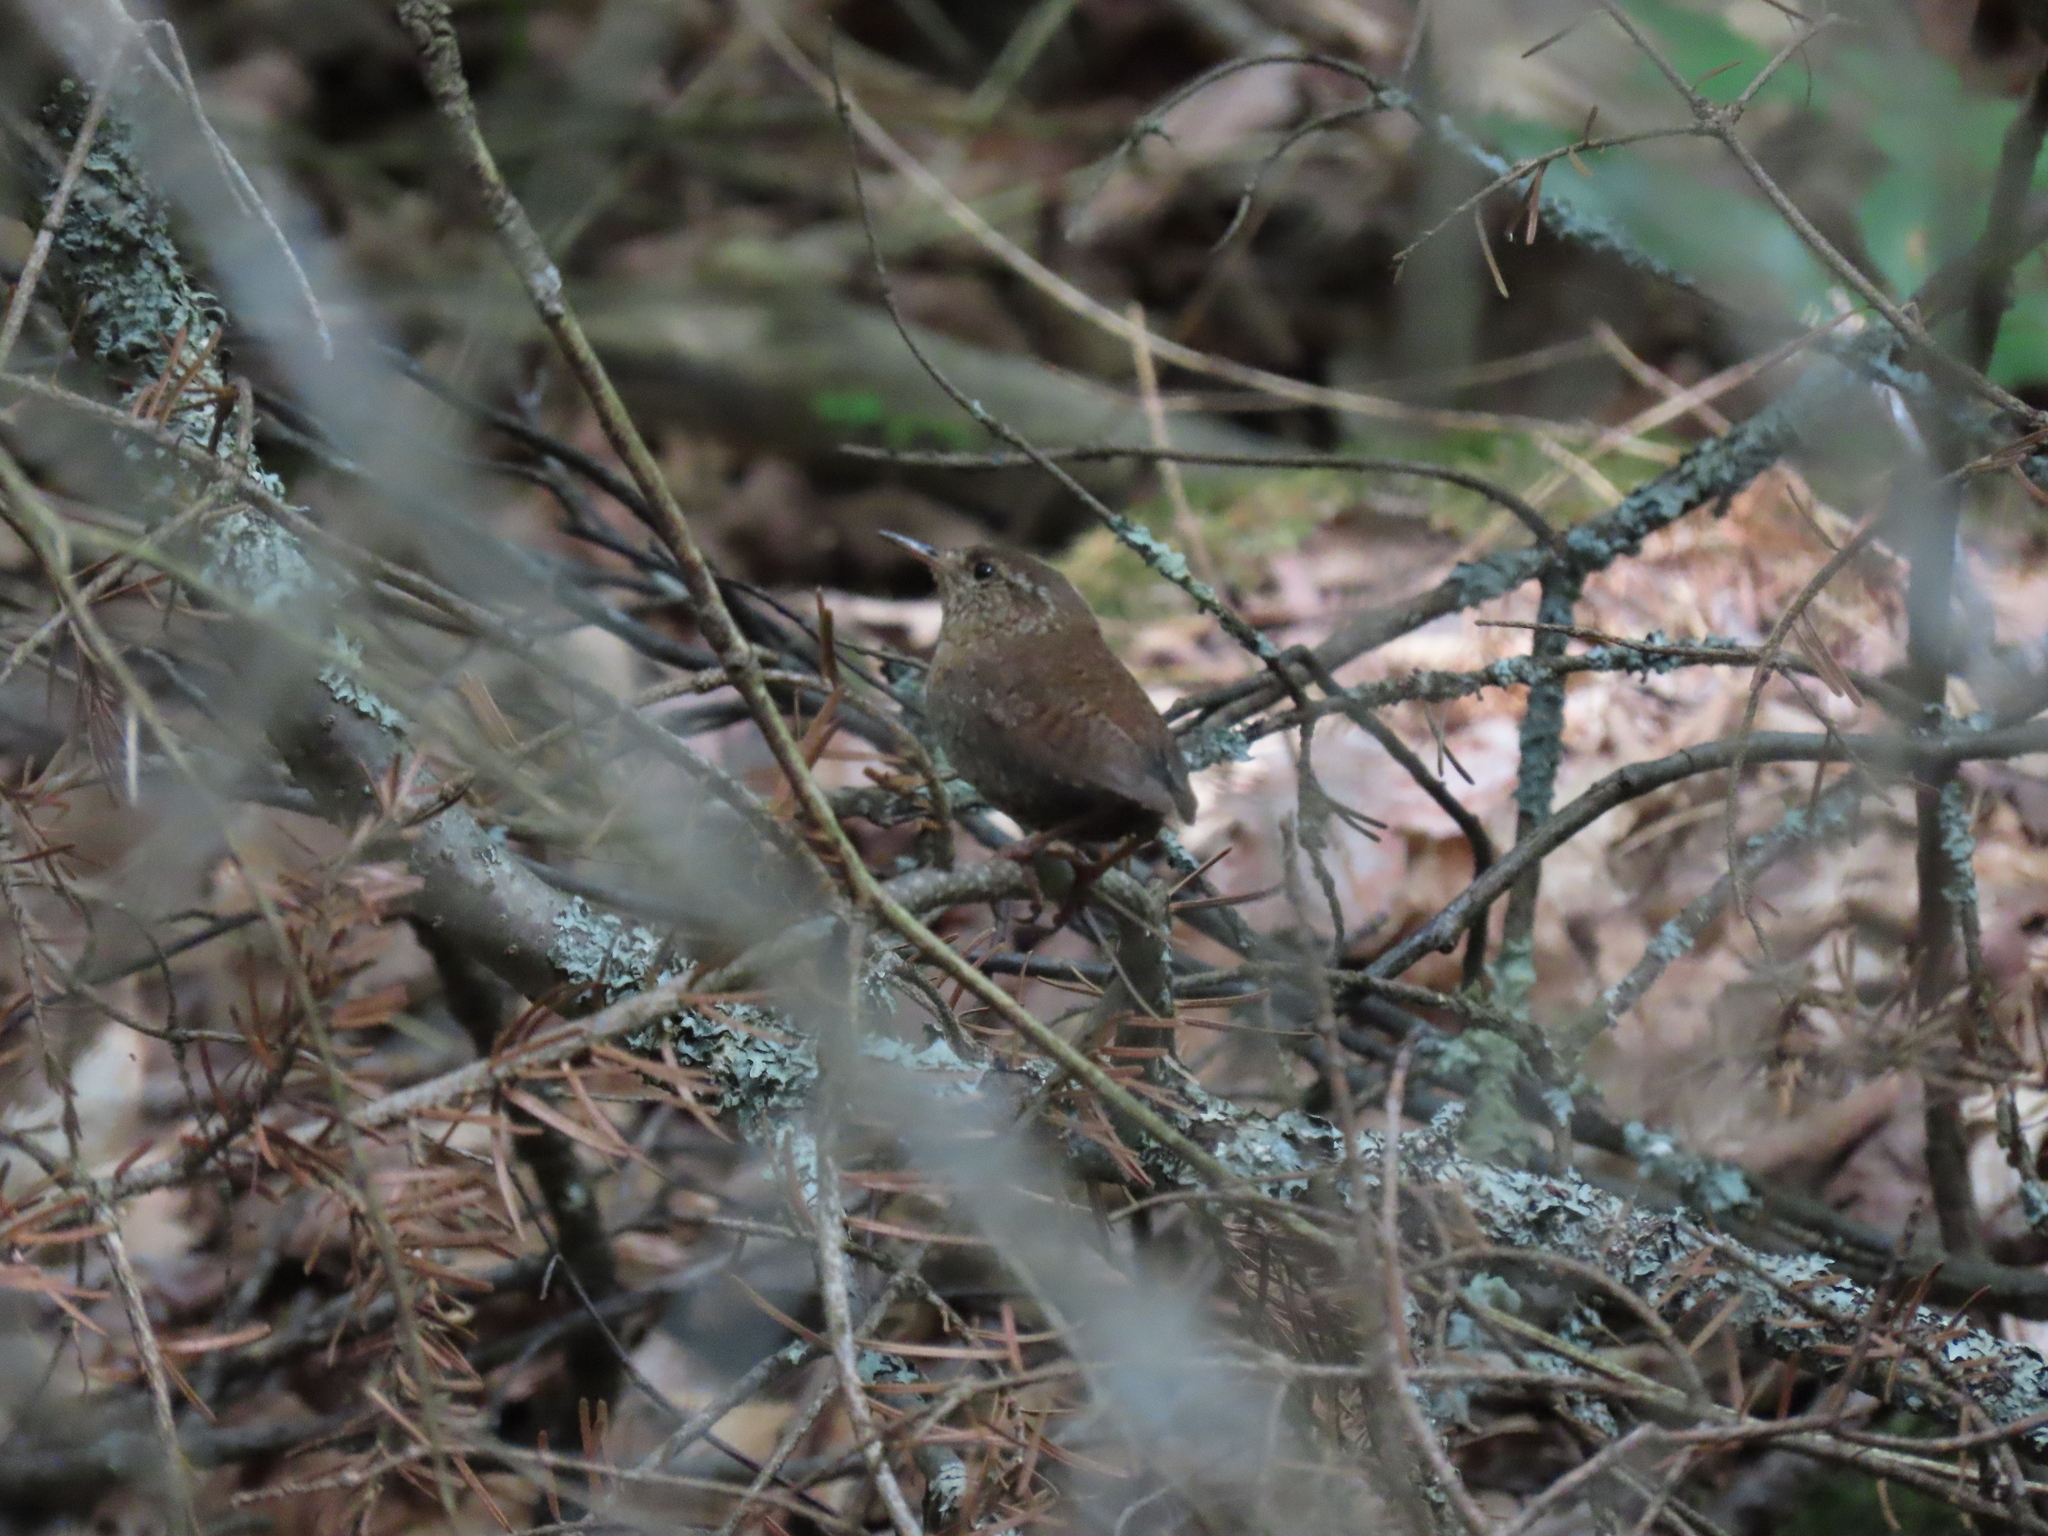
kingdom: Animalia
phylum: Chordata
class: Aves
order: Passeriformes
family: Troglodytidae
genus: Troglodytes
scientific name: Troglodytes hiemalis
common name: Winter wren
